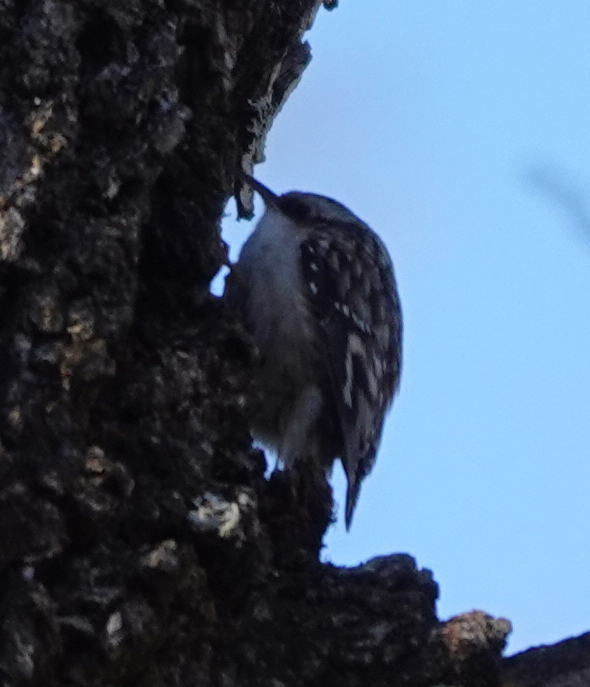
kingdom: Animalia
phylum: Chordata
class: Aves
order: Passeriformes
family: Certhiidae
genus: Certhia
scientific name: Certhia americana
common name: Brown creeper
